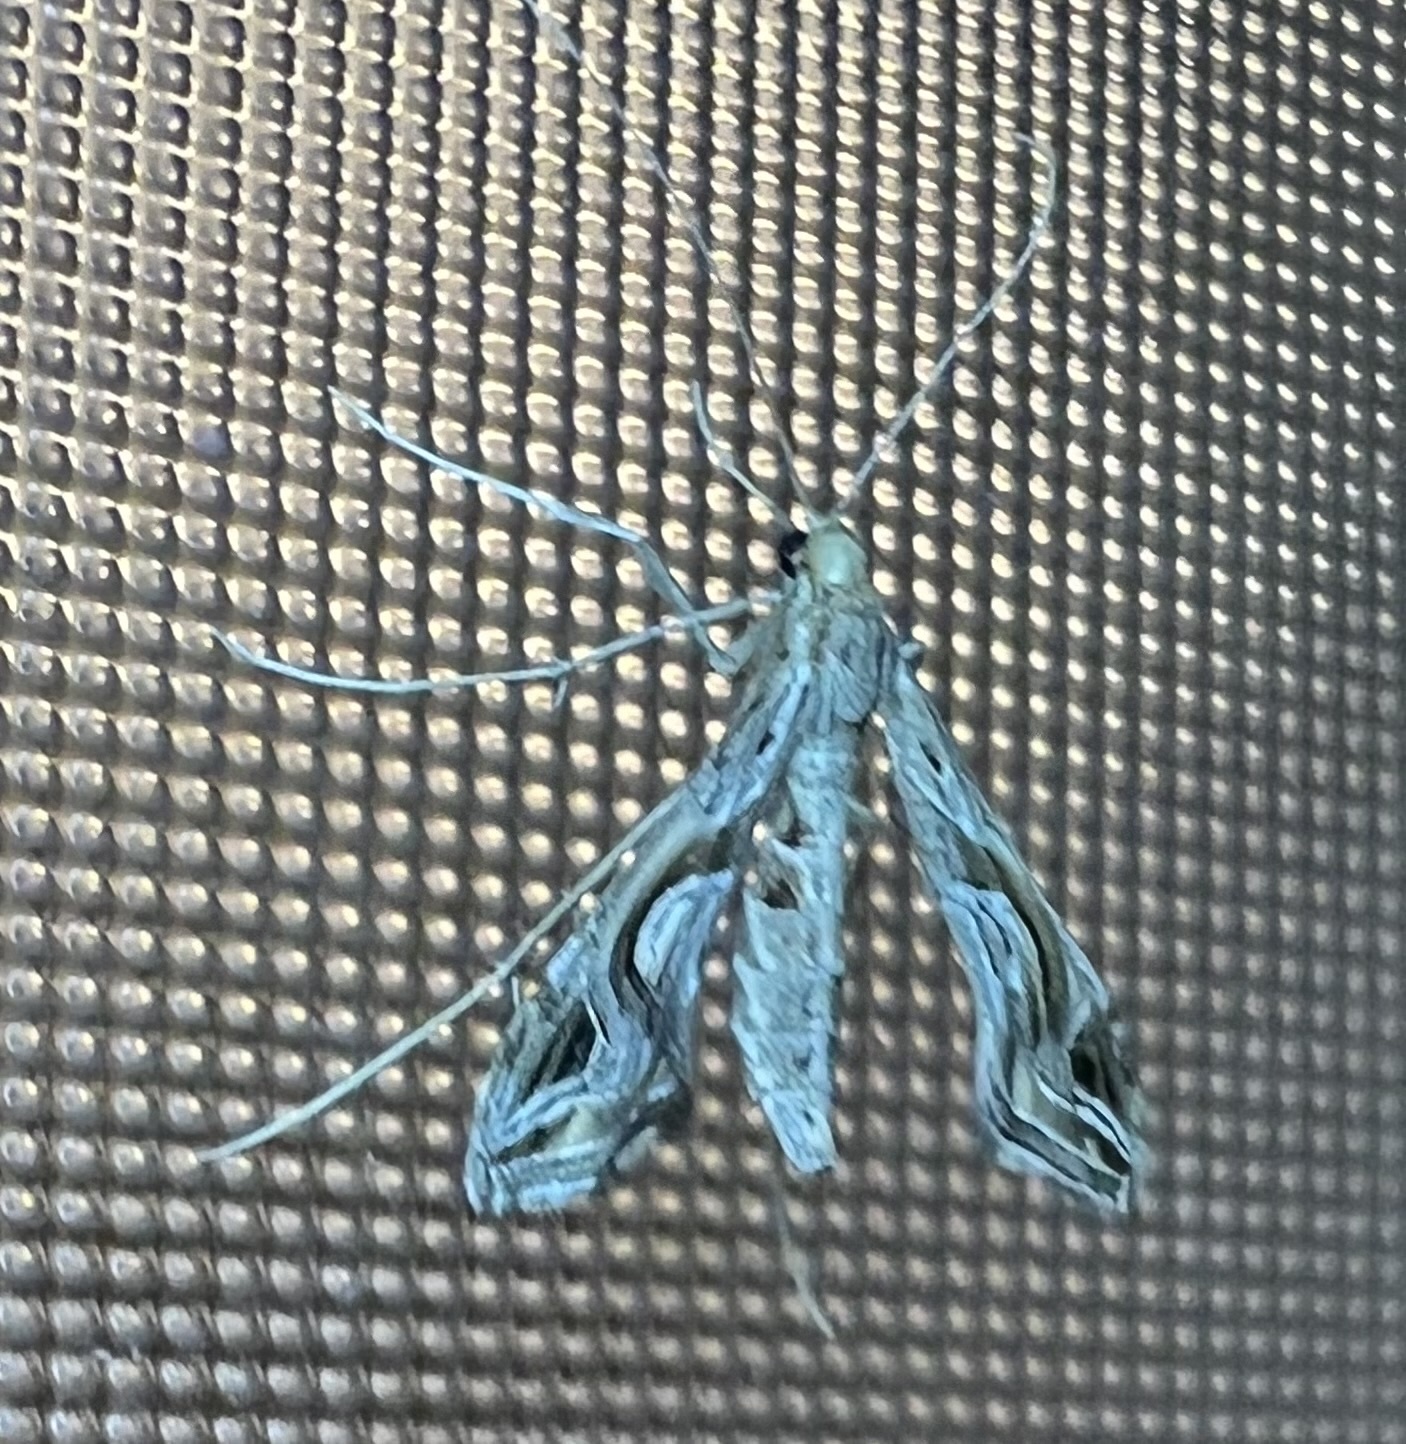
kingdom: Animalia
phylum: Arthropoda
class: Insecta
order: Lepidoptera
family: Crambidae
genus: Lineodes
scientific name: Lineodes integra
